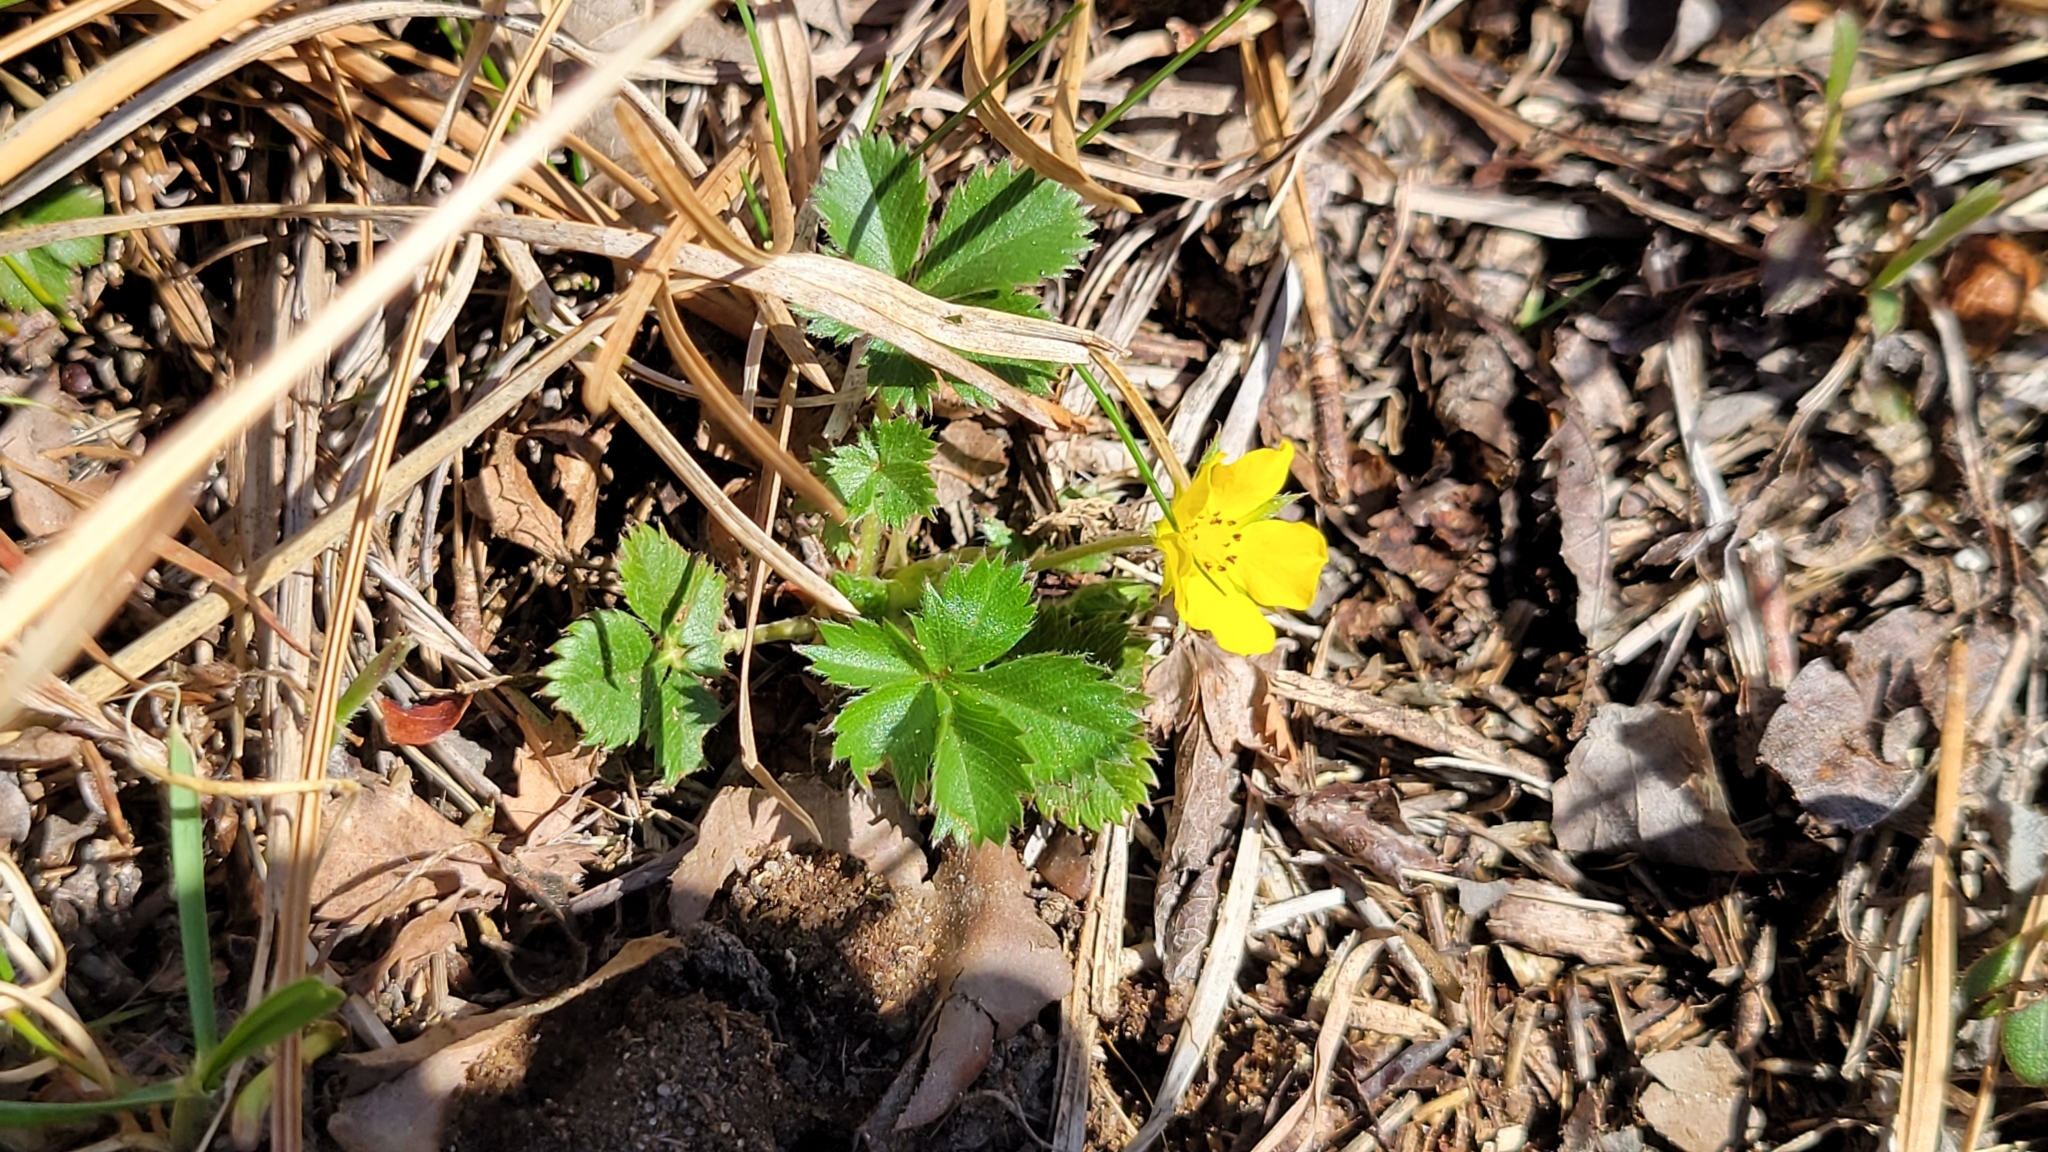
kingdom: Plantae
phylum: Tracheophyta
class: Magnoliopsida
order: Rosales
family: Rosaceae
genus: Potentilla
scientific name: Potentilla canadensis
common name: Canada cinquefoil
